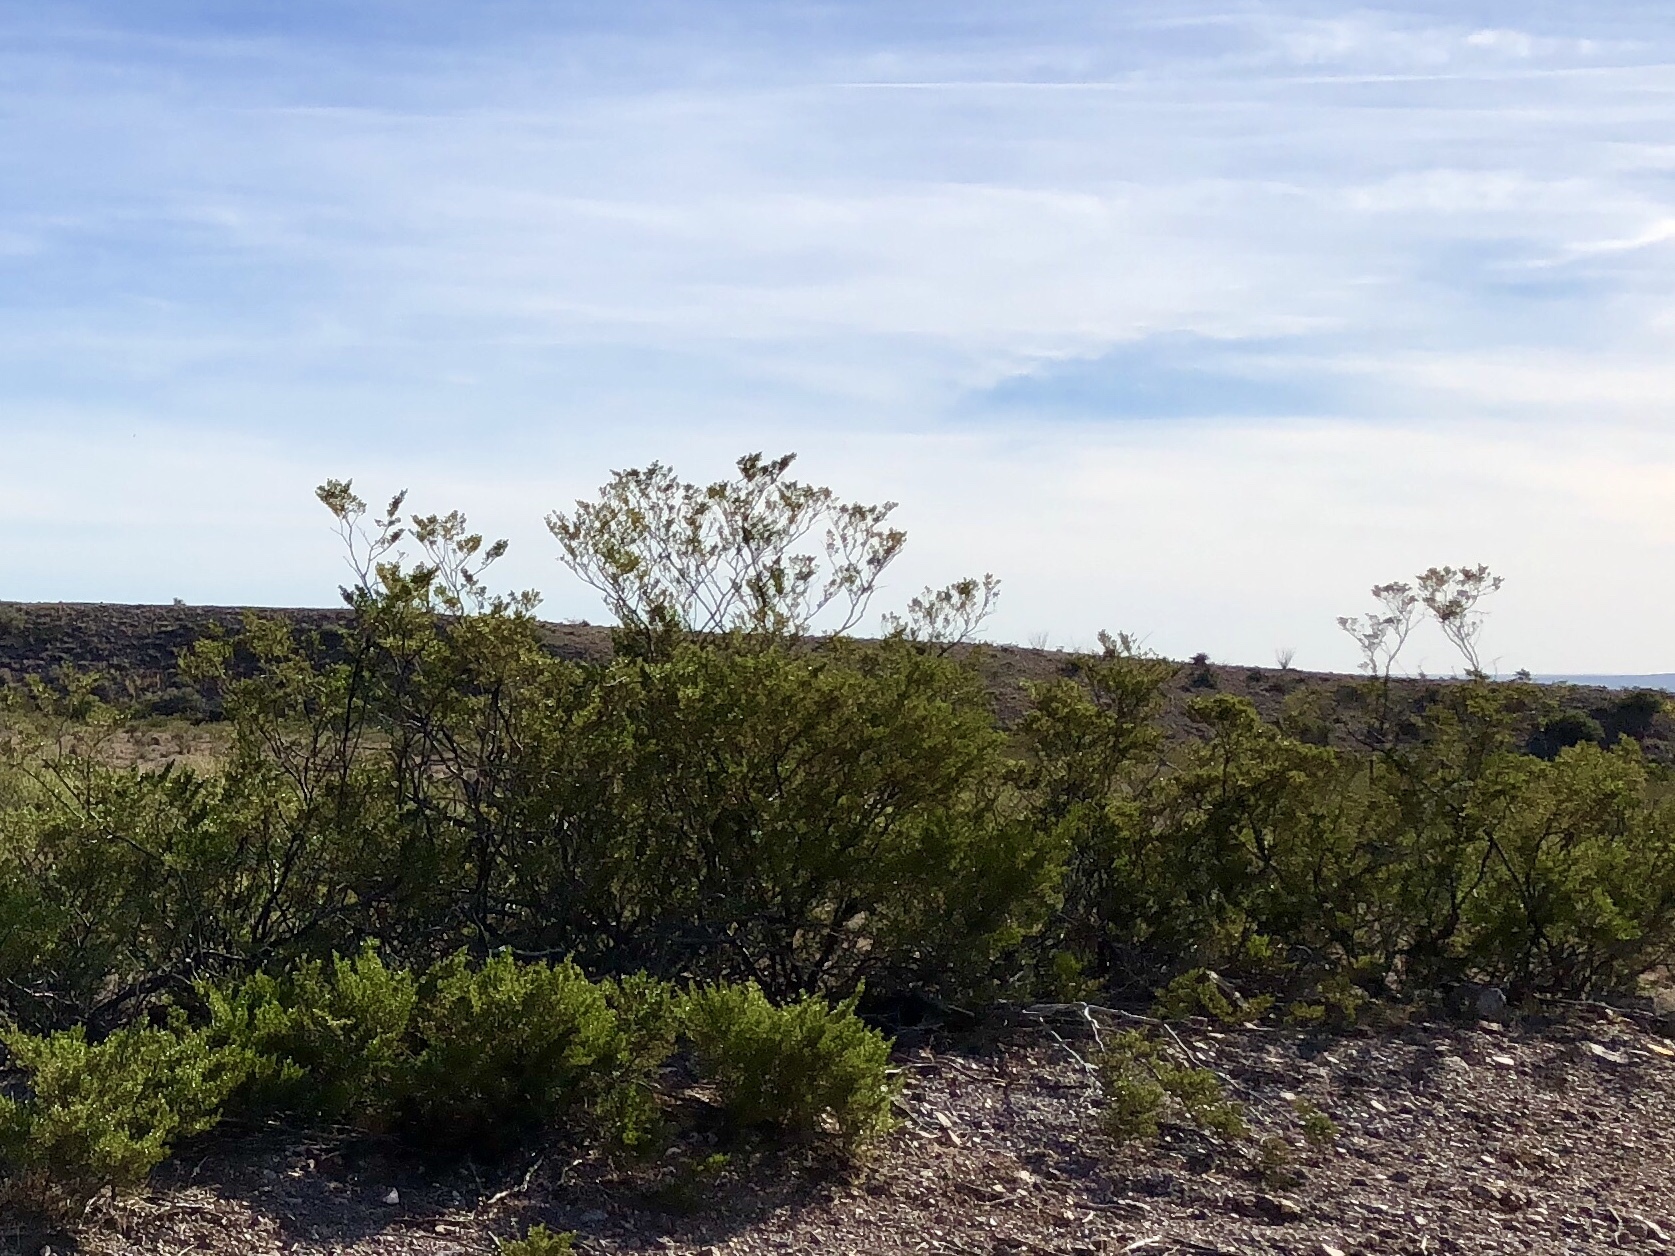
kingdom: Plantae
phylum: Tracheophyta
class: Magnoliopsida
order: Zygophyllales
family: Zygophyllaceae
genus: Larrea
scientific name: Larrea tridentata
